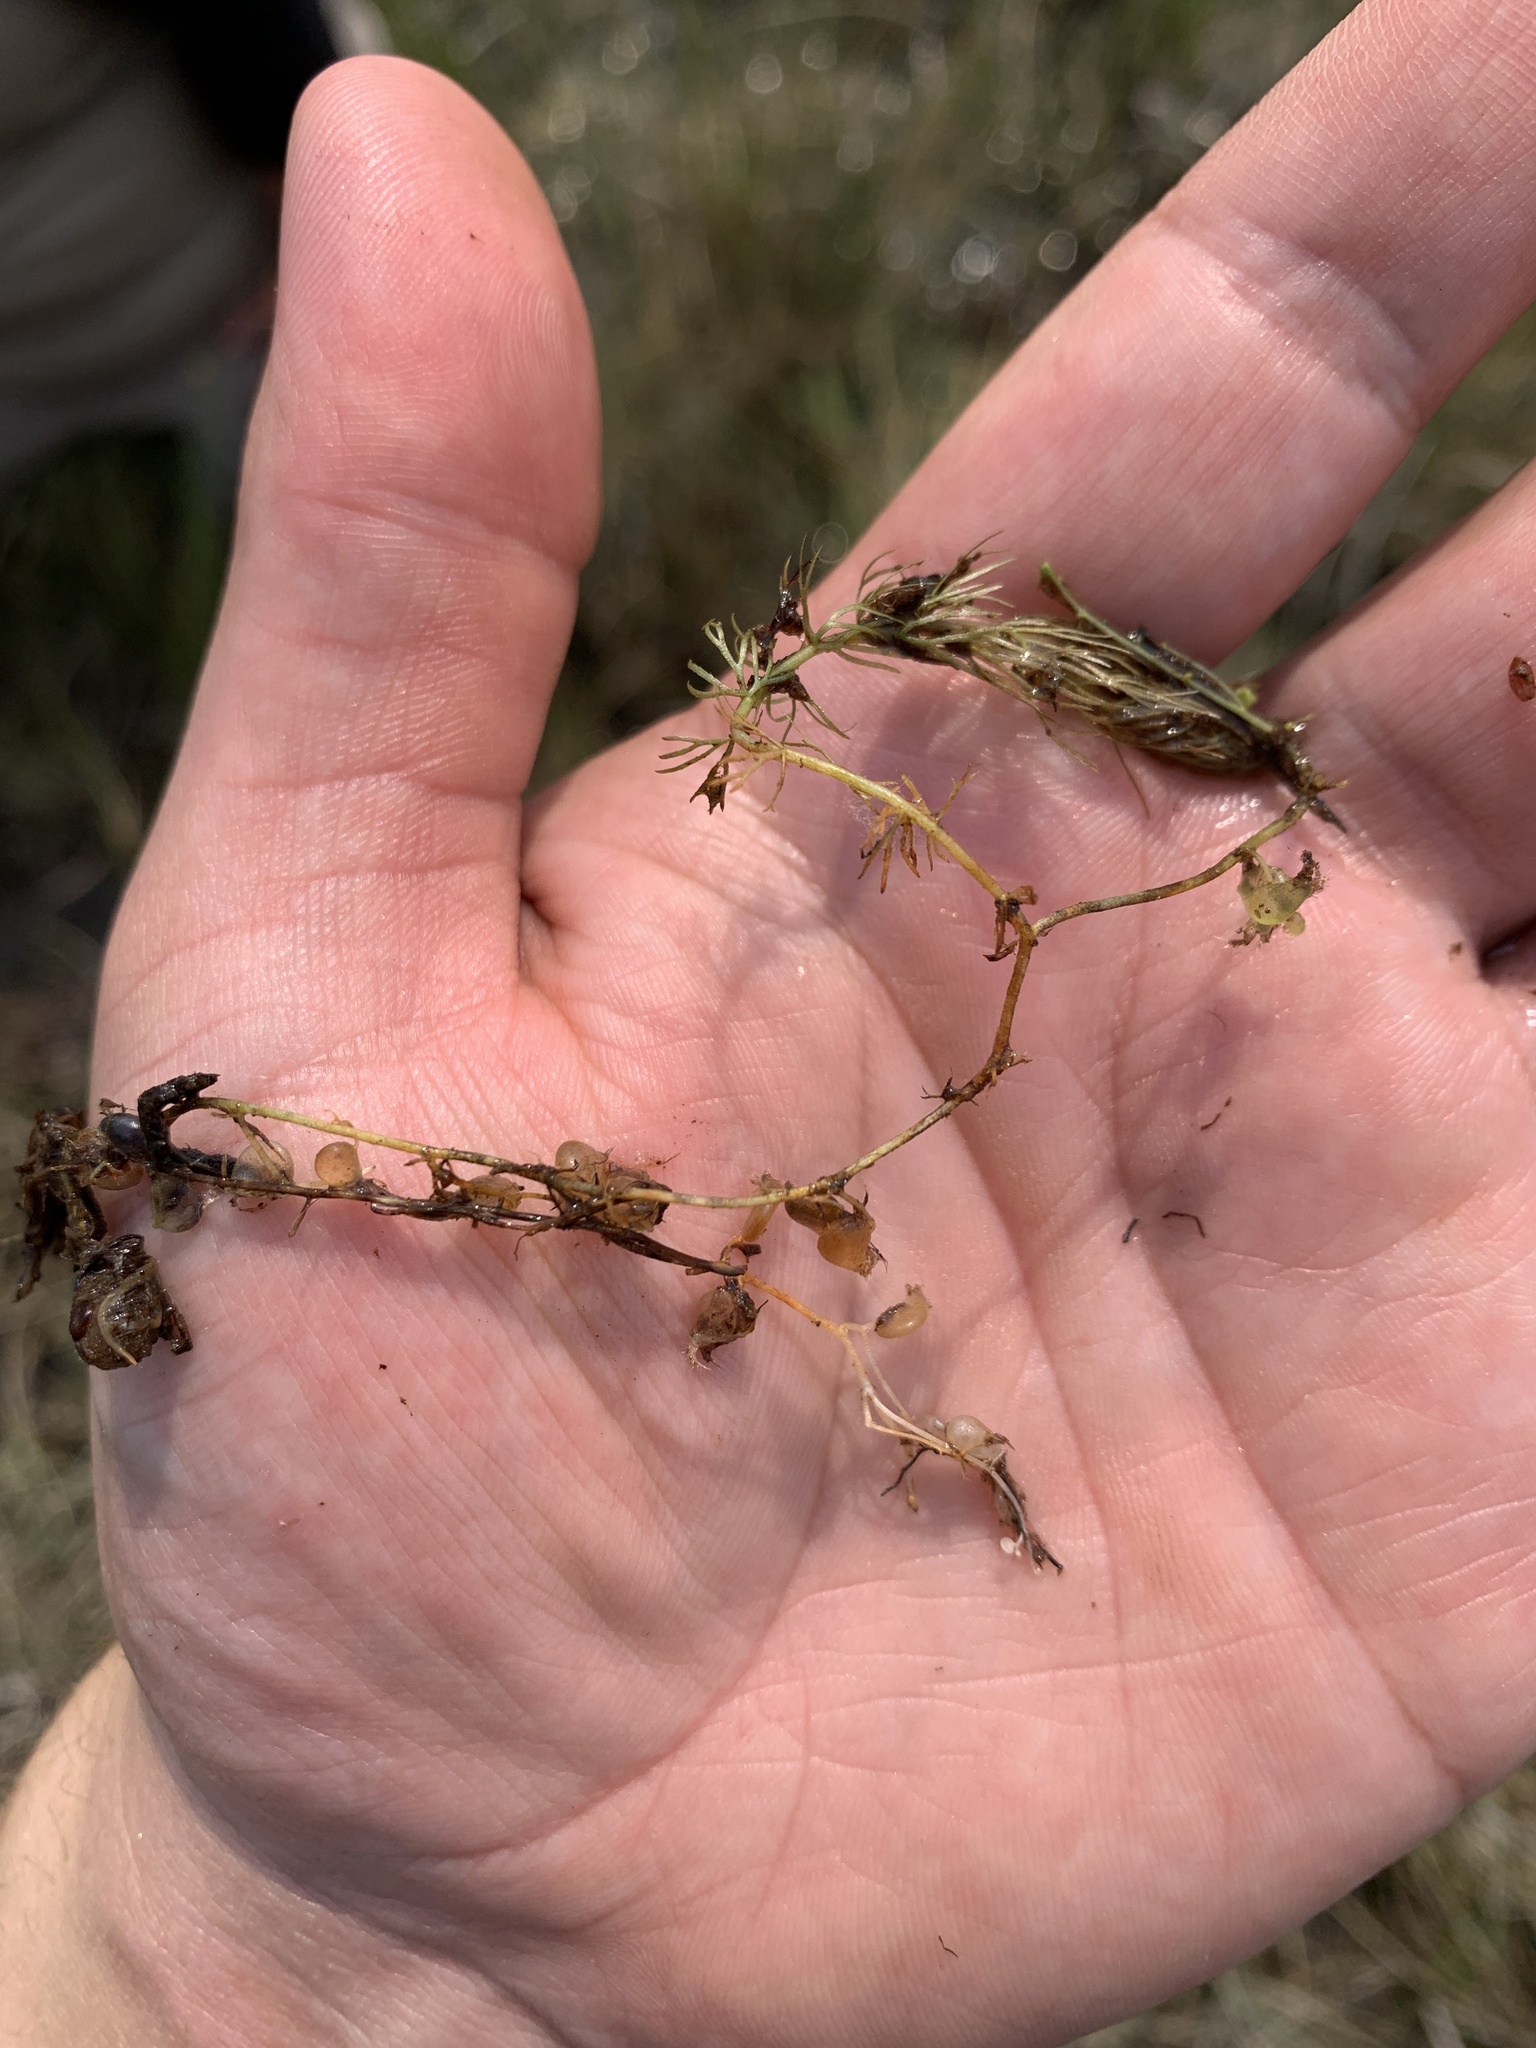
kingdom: Plantae
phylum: Tracheophyta
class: Magnoliopsida
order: Lamiales
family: Lentibulariaceae
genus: Utricularia
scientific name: Utricularia intermedia
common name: Intermediate bladderwort
